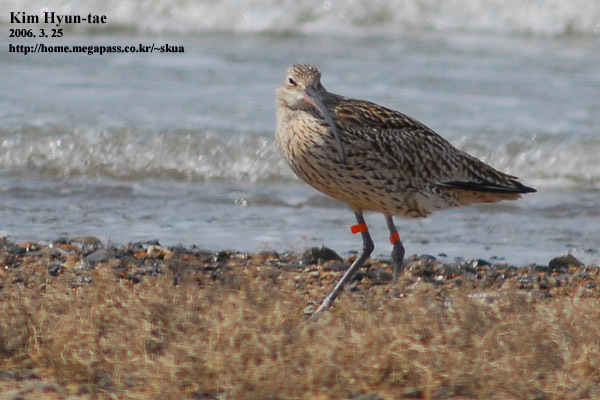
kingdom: Animalia
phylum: Chordata
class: Aves
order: Charadriiformes
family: Scolopacidae
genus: Numenius
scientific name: Numenius madagascariensis
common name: Far eastern curlew
